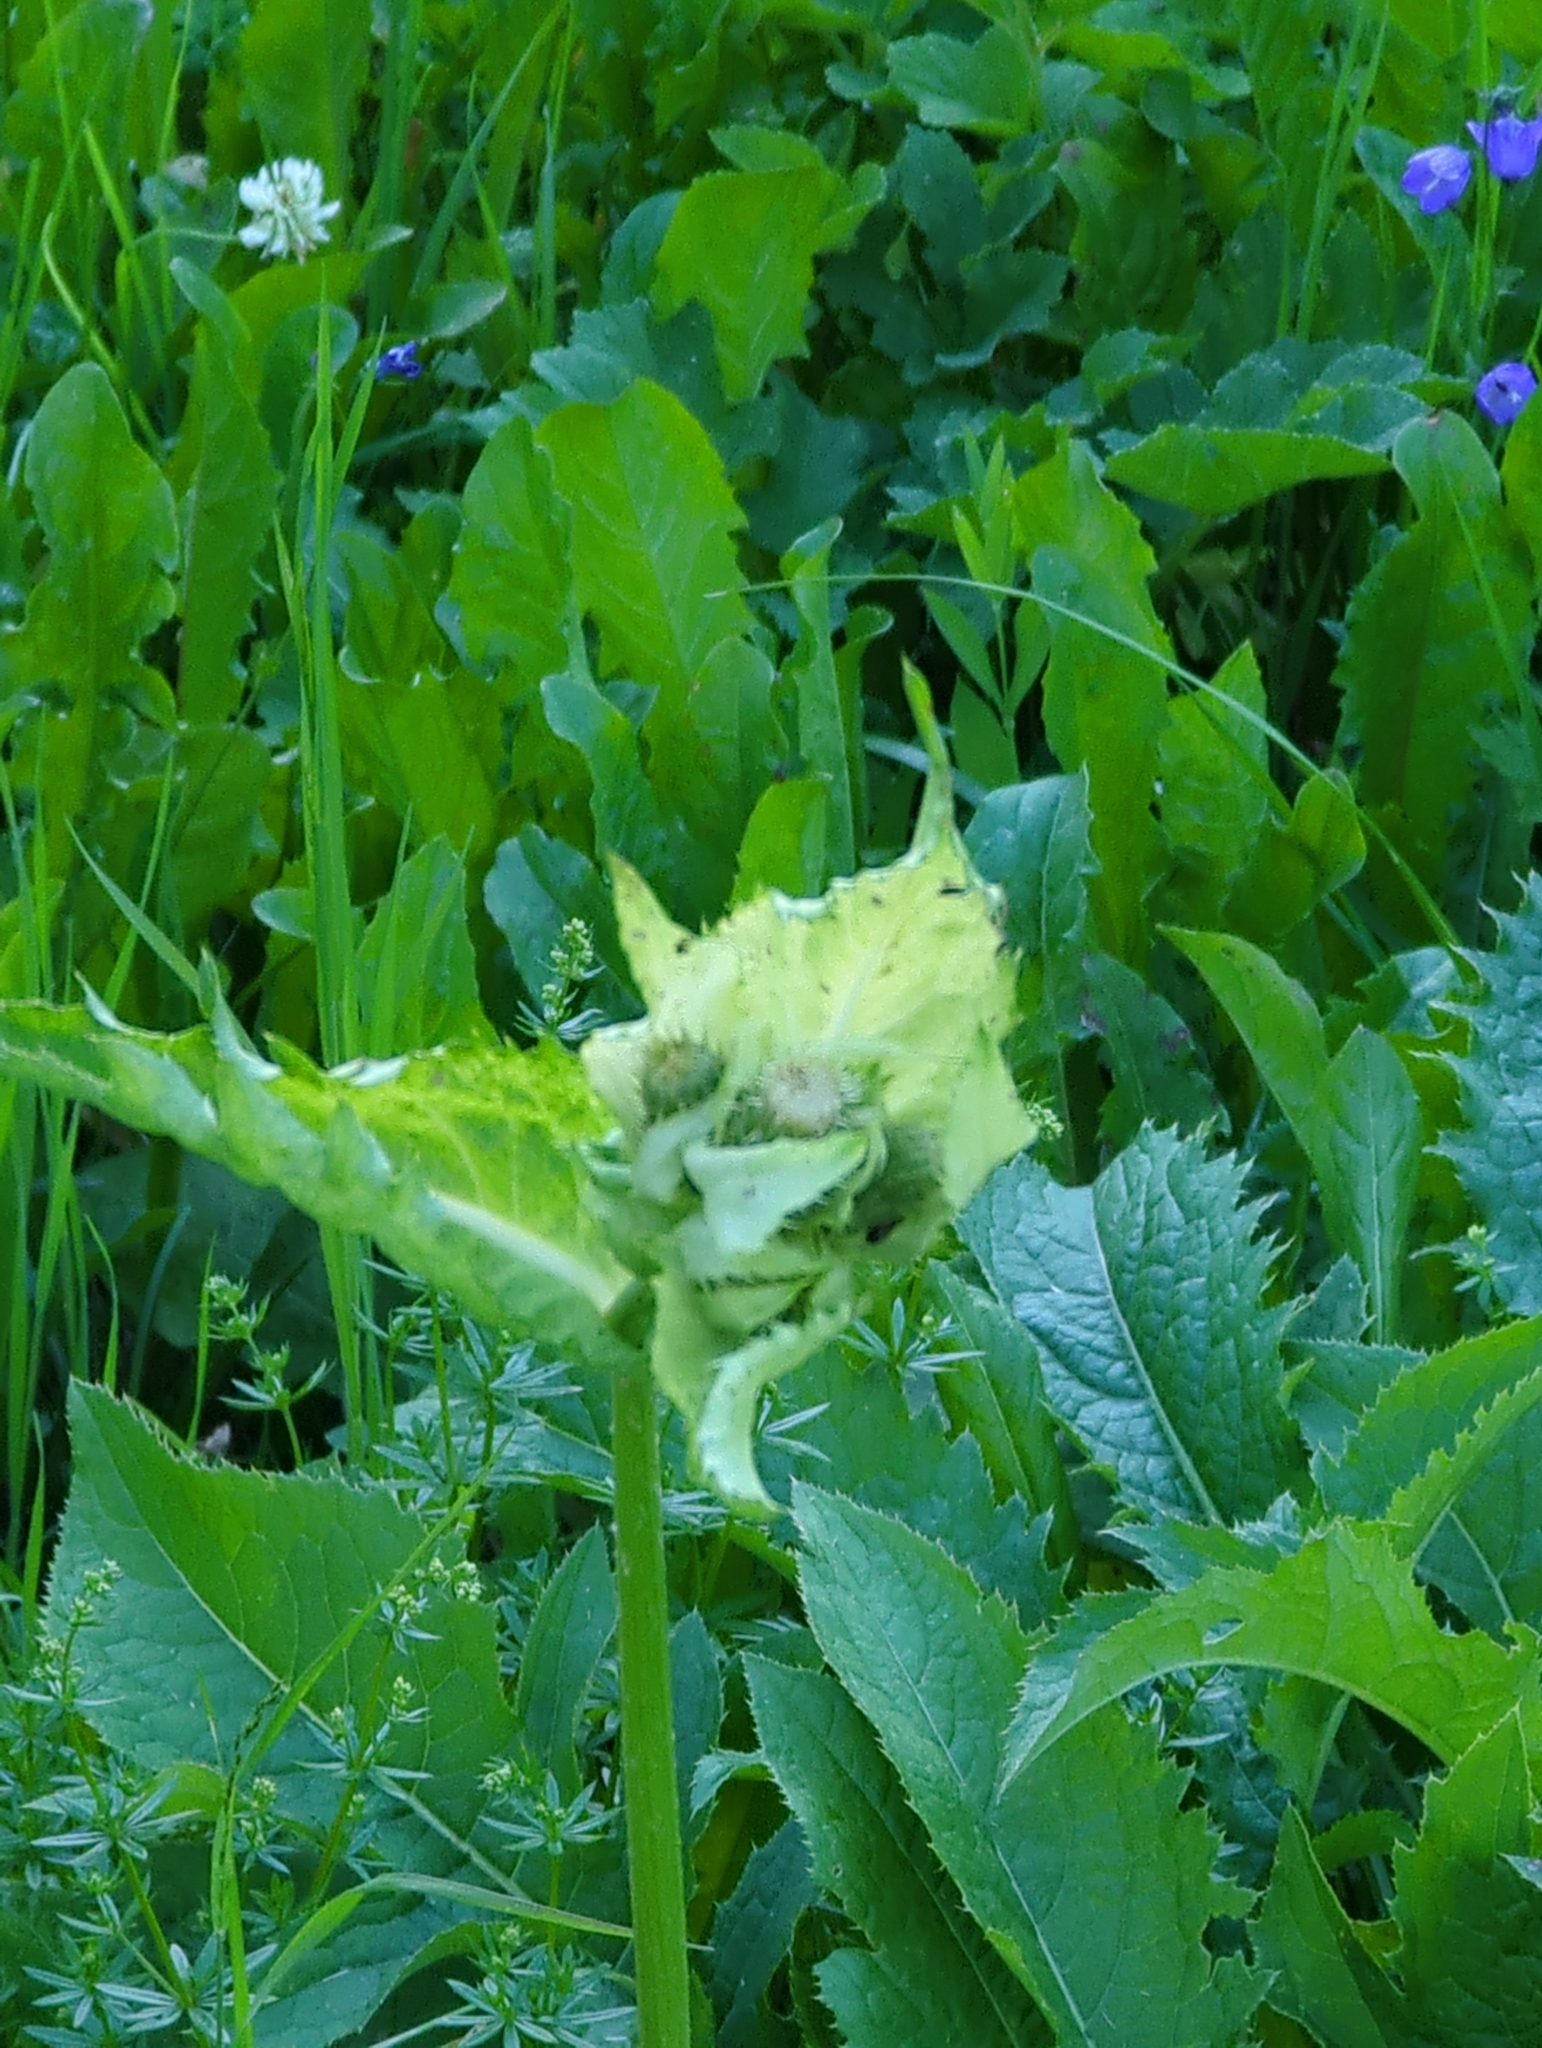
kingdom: Plantae
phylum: Tracheophyta
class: Magnoliopsida
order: Asterales
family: Asteraceae
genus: Cirsium
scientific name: Cirsium oleraceum
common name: Cabbage thistle
